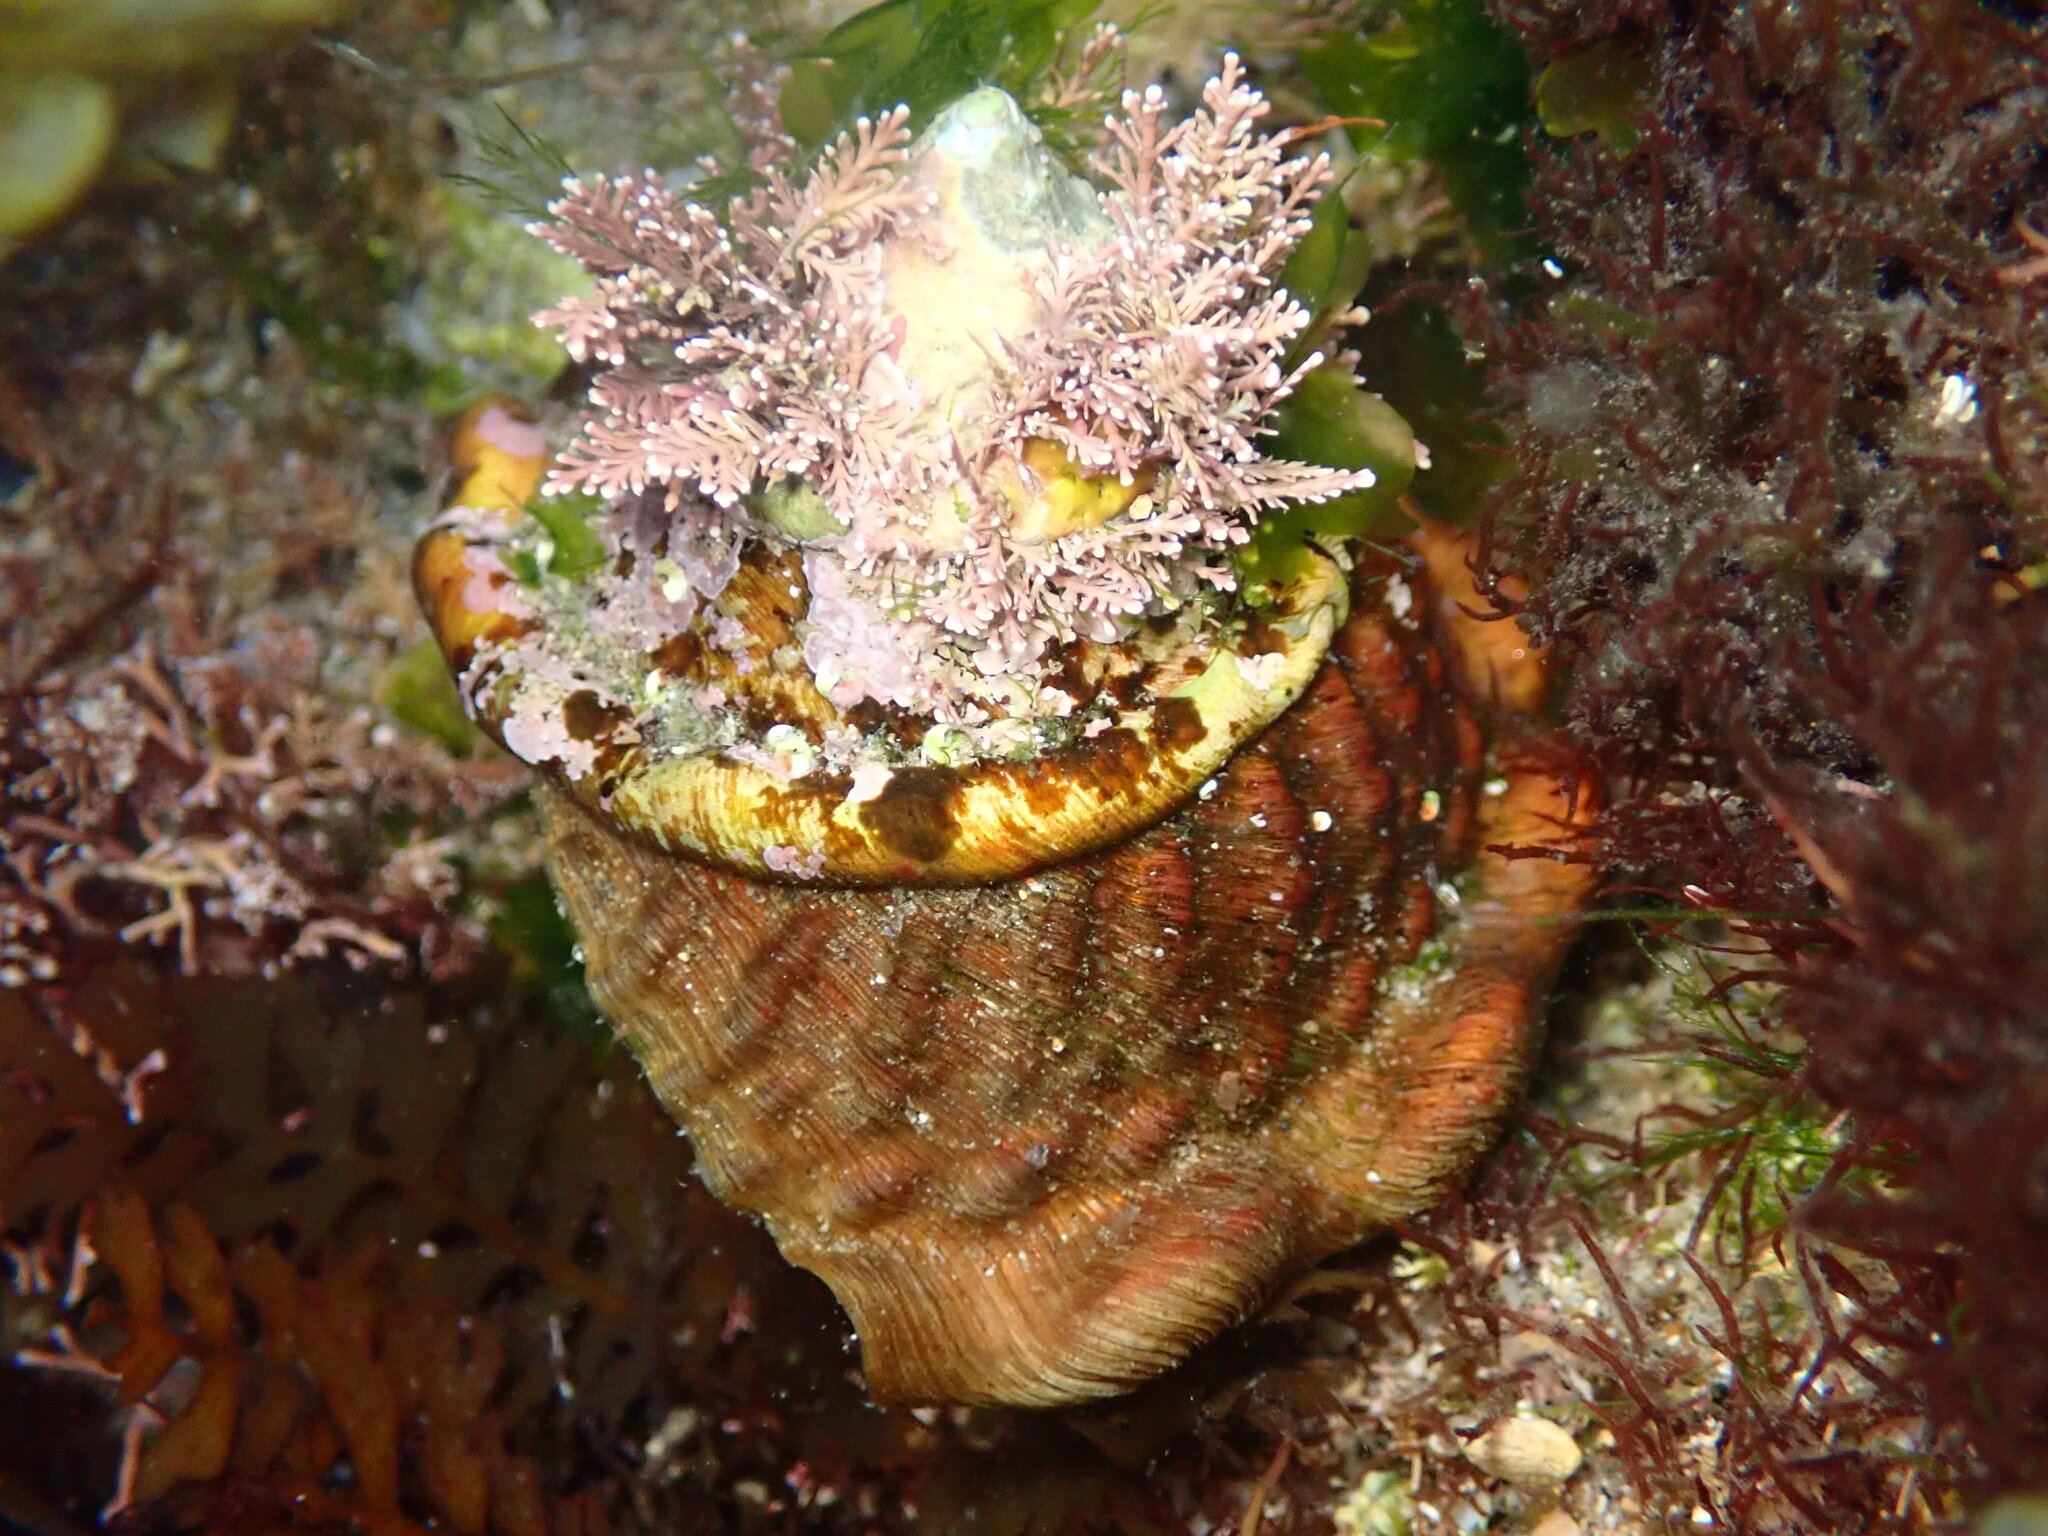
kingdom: Animalia
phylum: Mollusca
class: Gastropoda
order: Trochida
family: Turbinidae
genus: Megastraea
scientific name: Megastraea undosa
